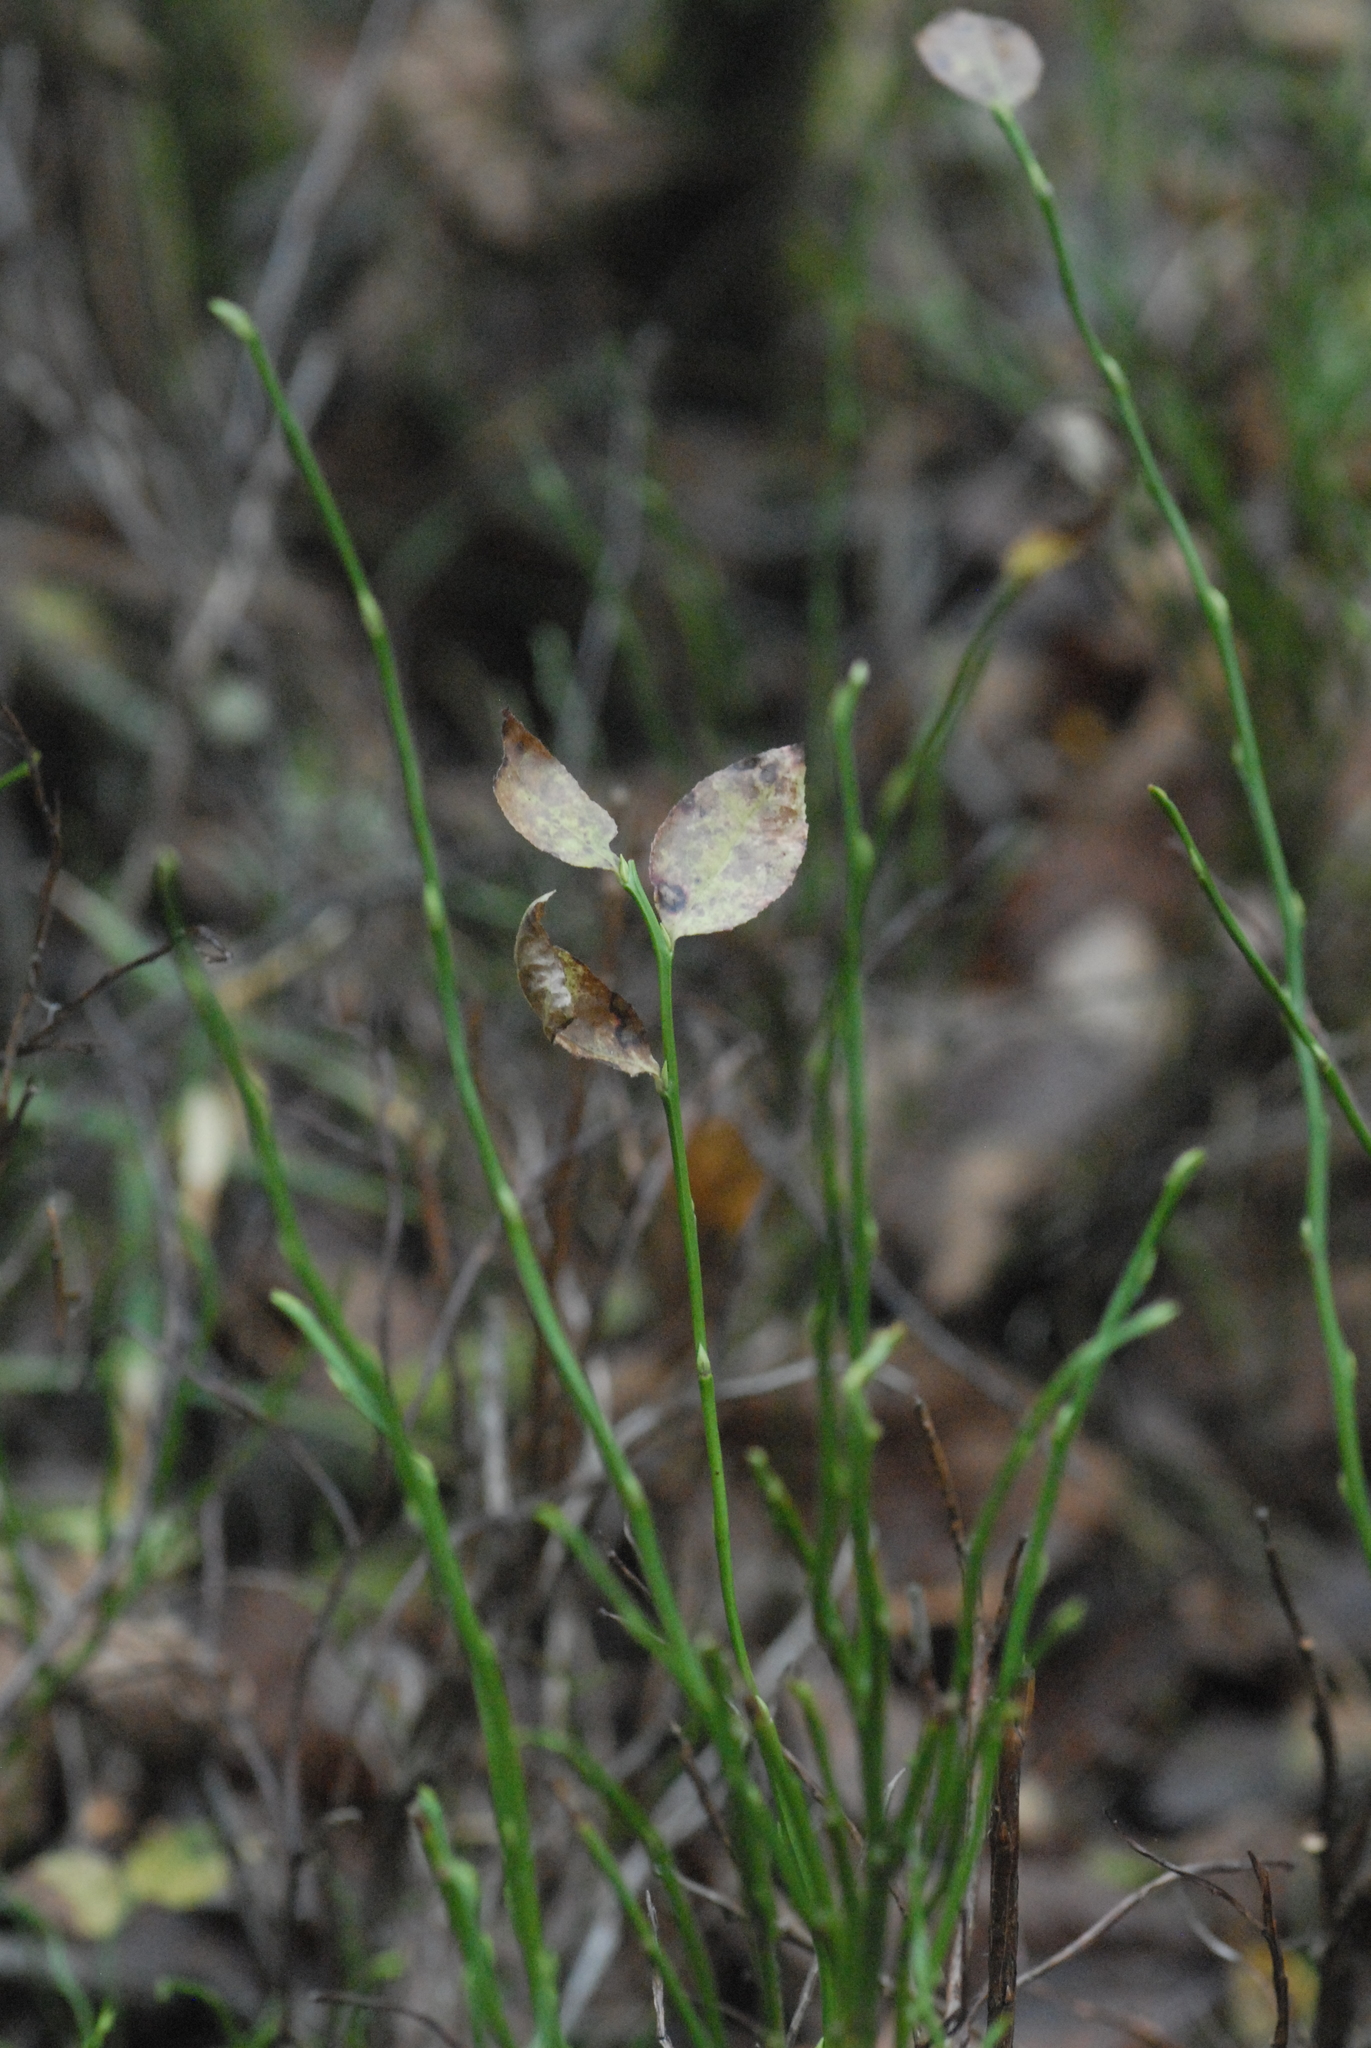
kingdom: Plantae
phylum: Tracheophyta
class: Magnoliopsida
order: Ericales
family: Ericaceae
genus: Vaccinium
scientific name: Vaccinium myrtillus
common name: Bilberry
